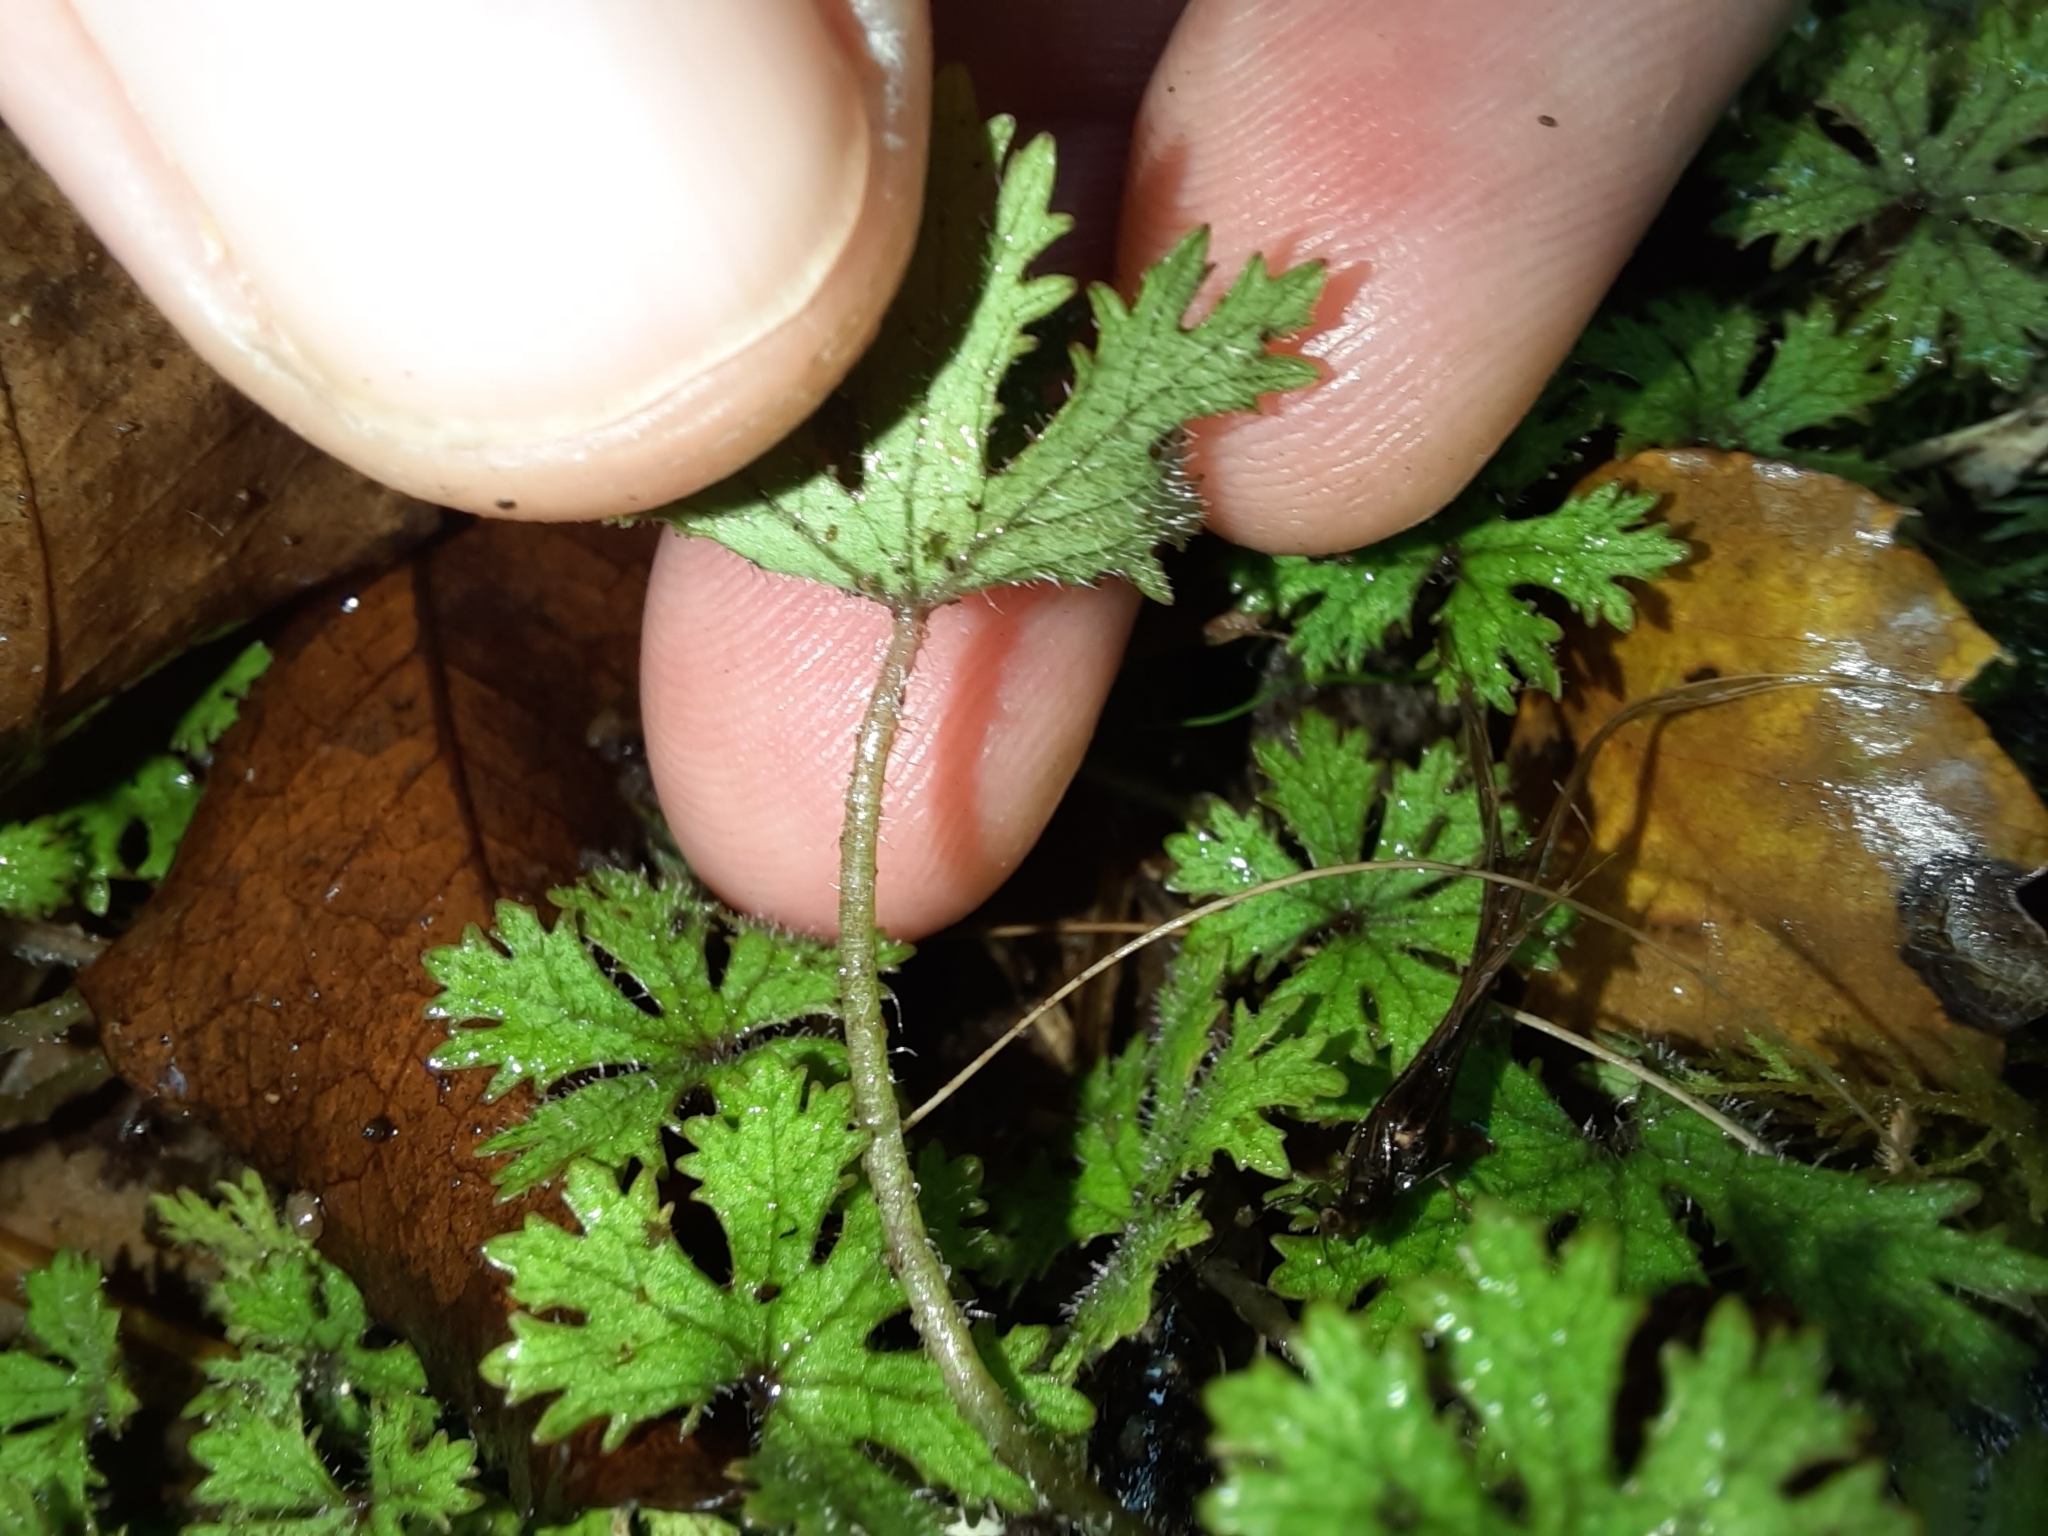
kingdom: Plantae
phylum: Tracheophyta
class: Magnoliopsida
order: Apiales
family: Araliaceae
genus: Hydrocotyle
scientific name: Hydrocotyle dissecta
